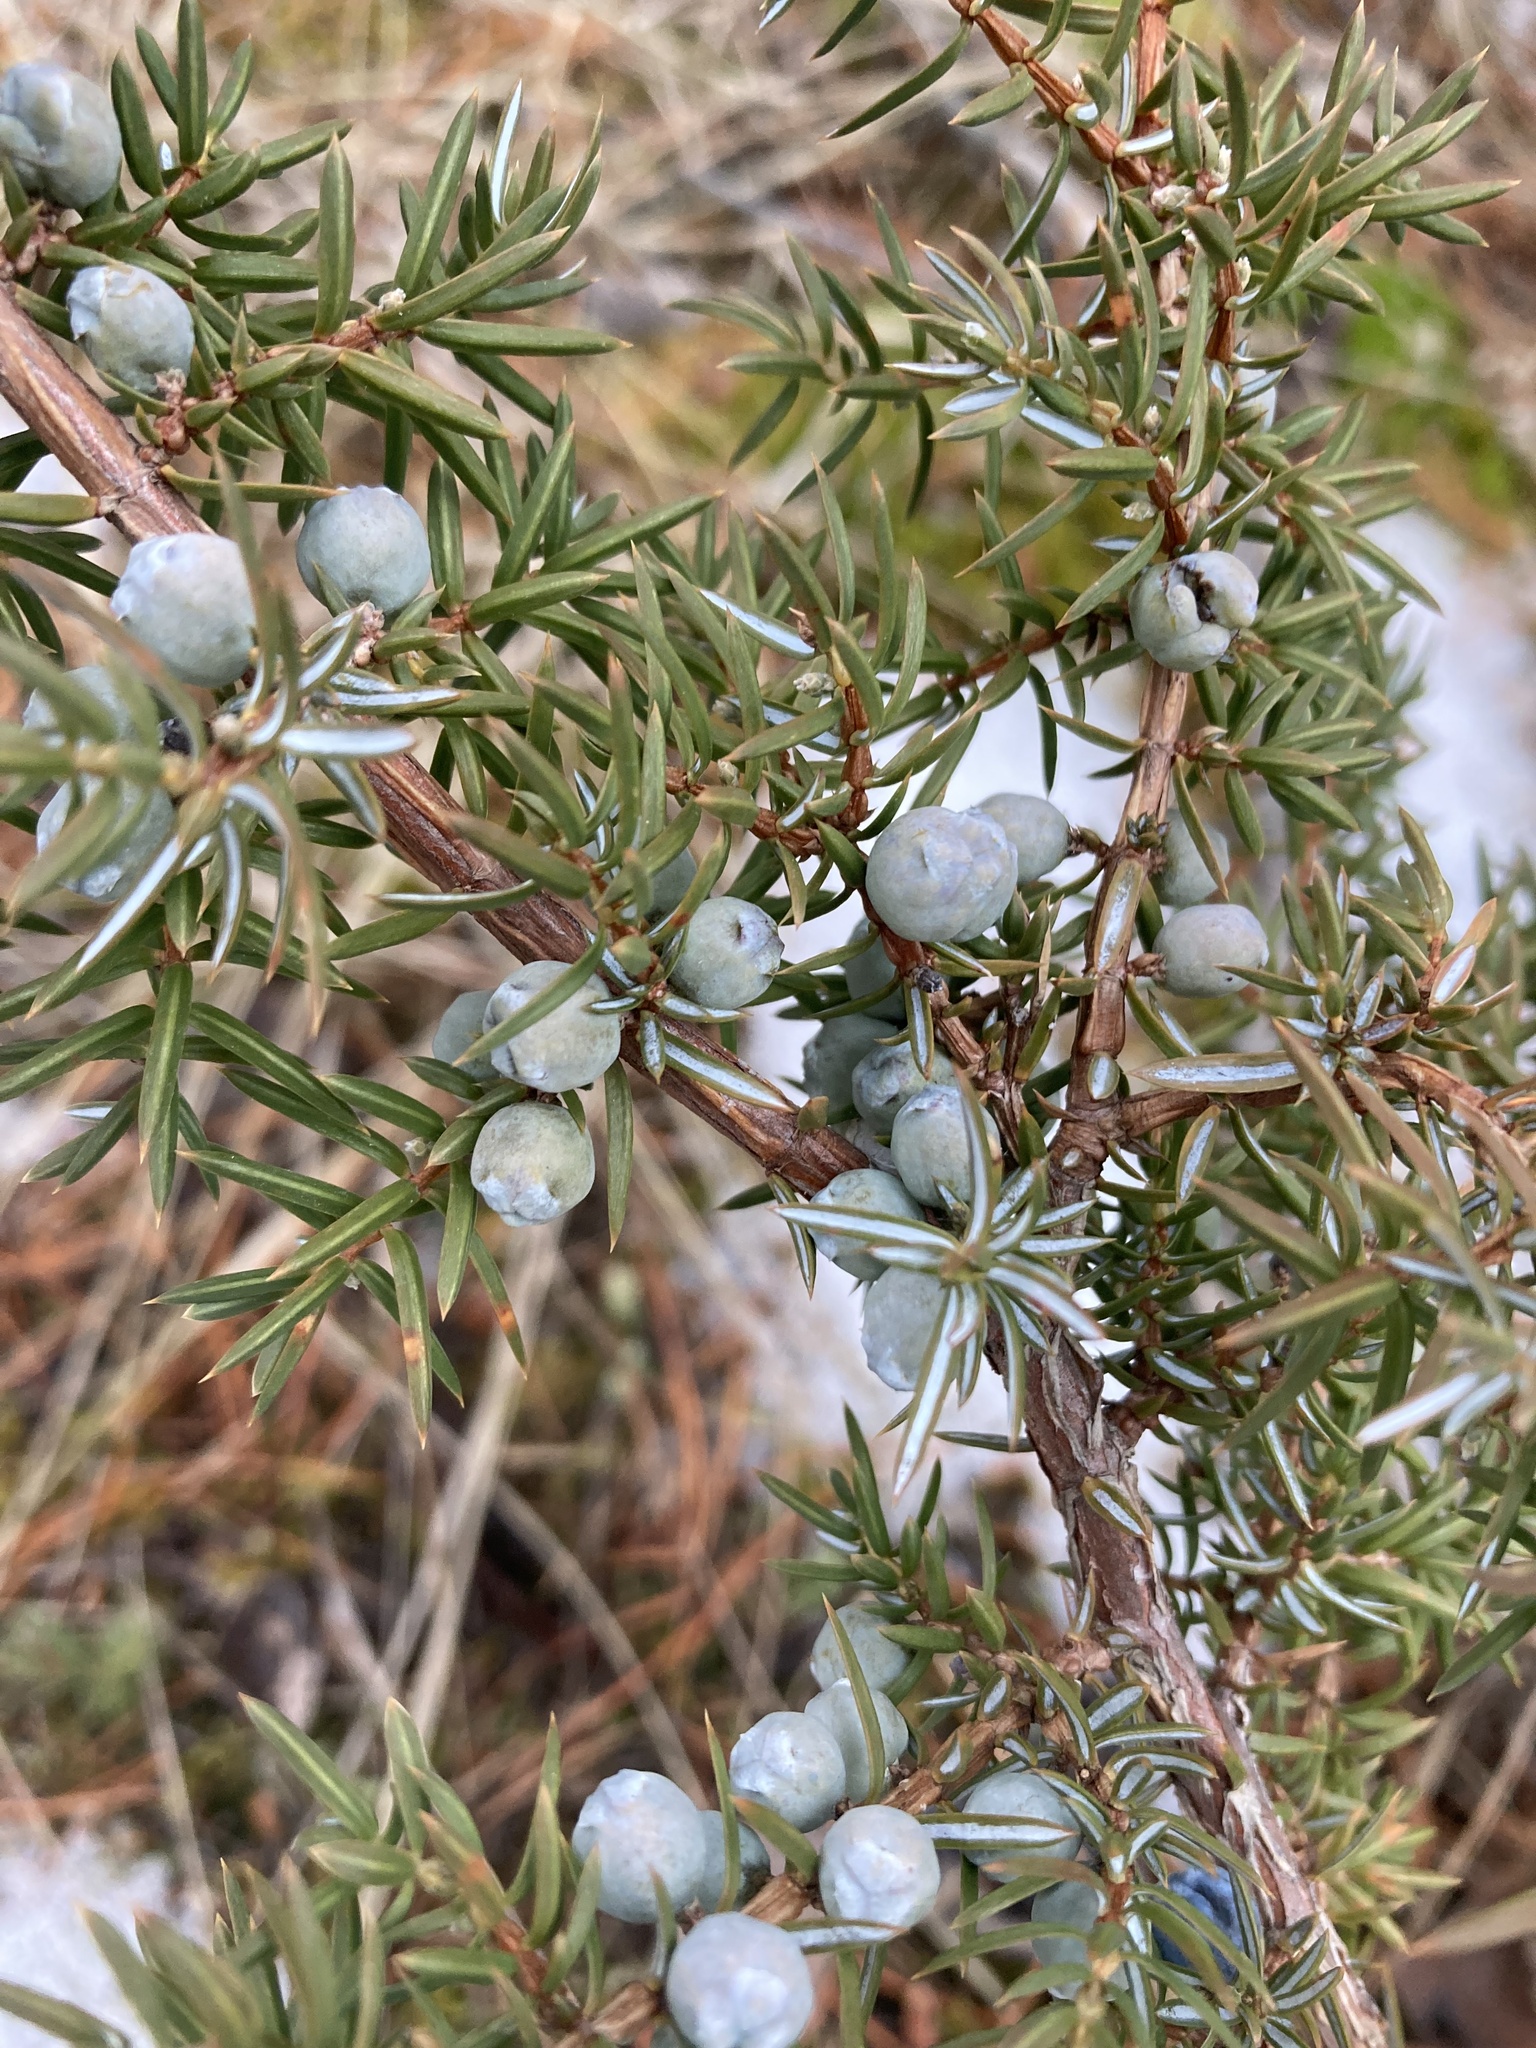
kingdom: Plantae
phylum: Tracheophyta
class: Pinopsida
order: Pinales
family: Cupressaceae
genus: Juniperus
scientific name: Juniperus communis
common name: Common juniper
